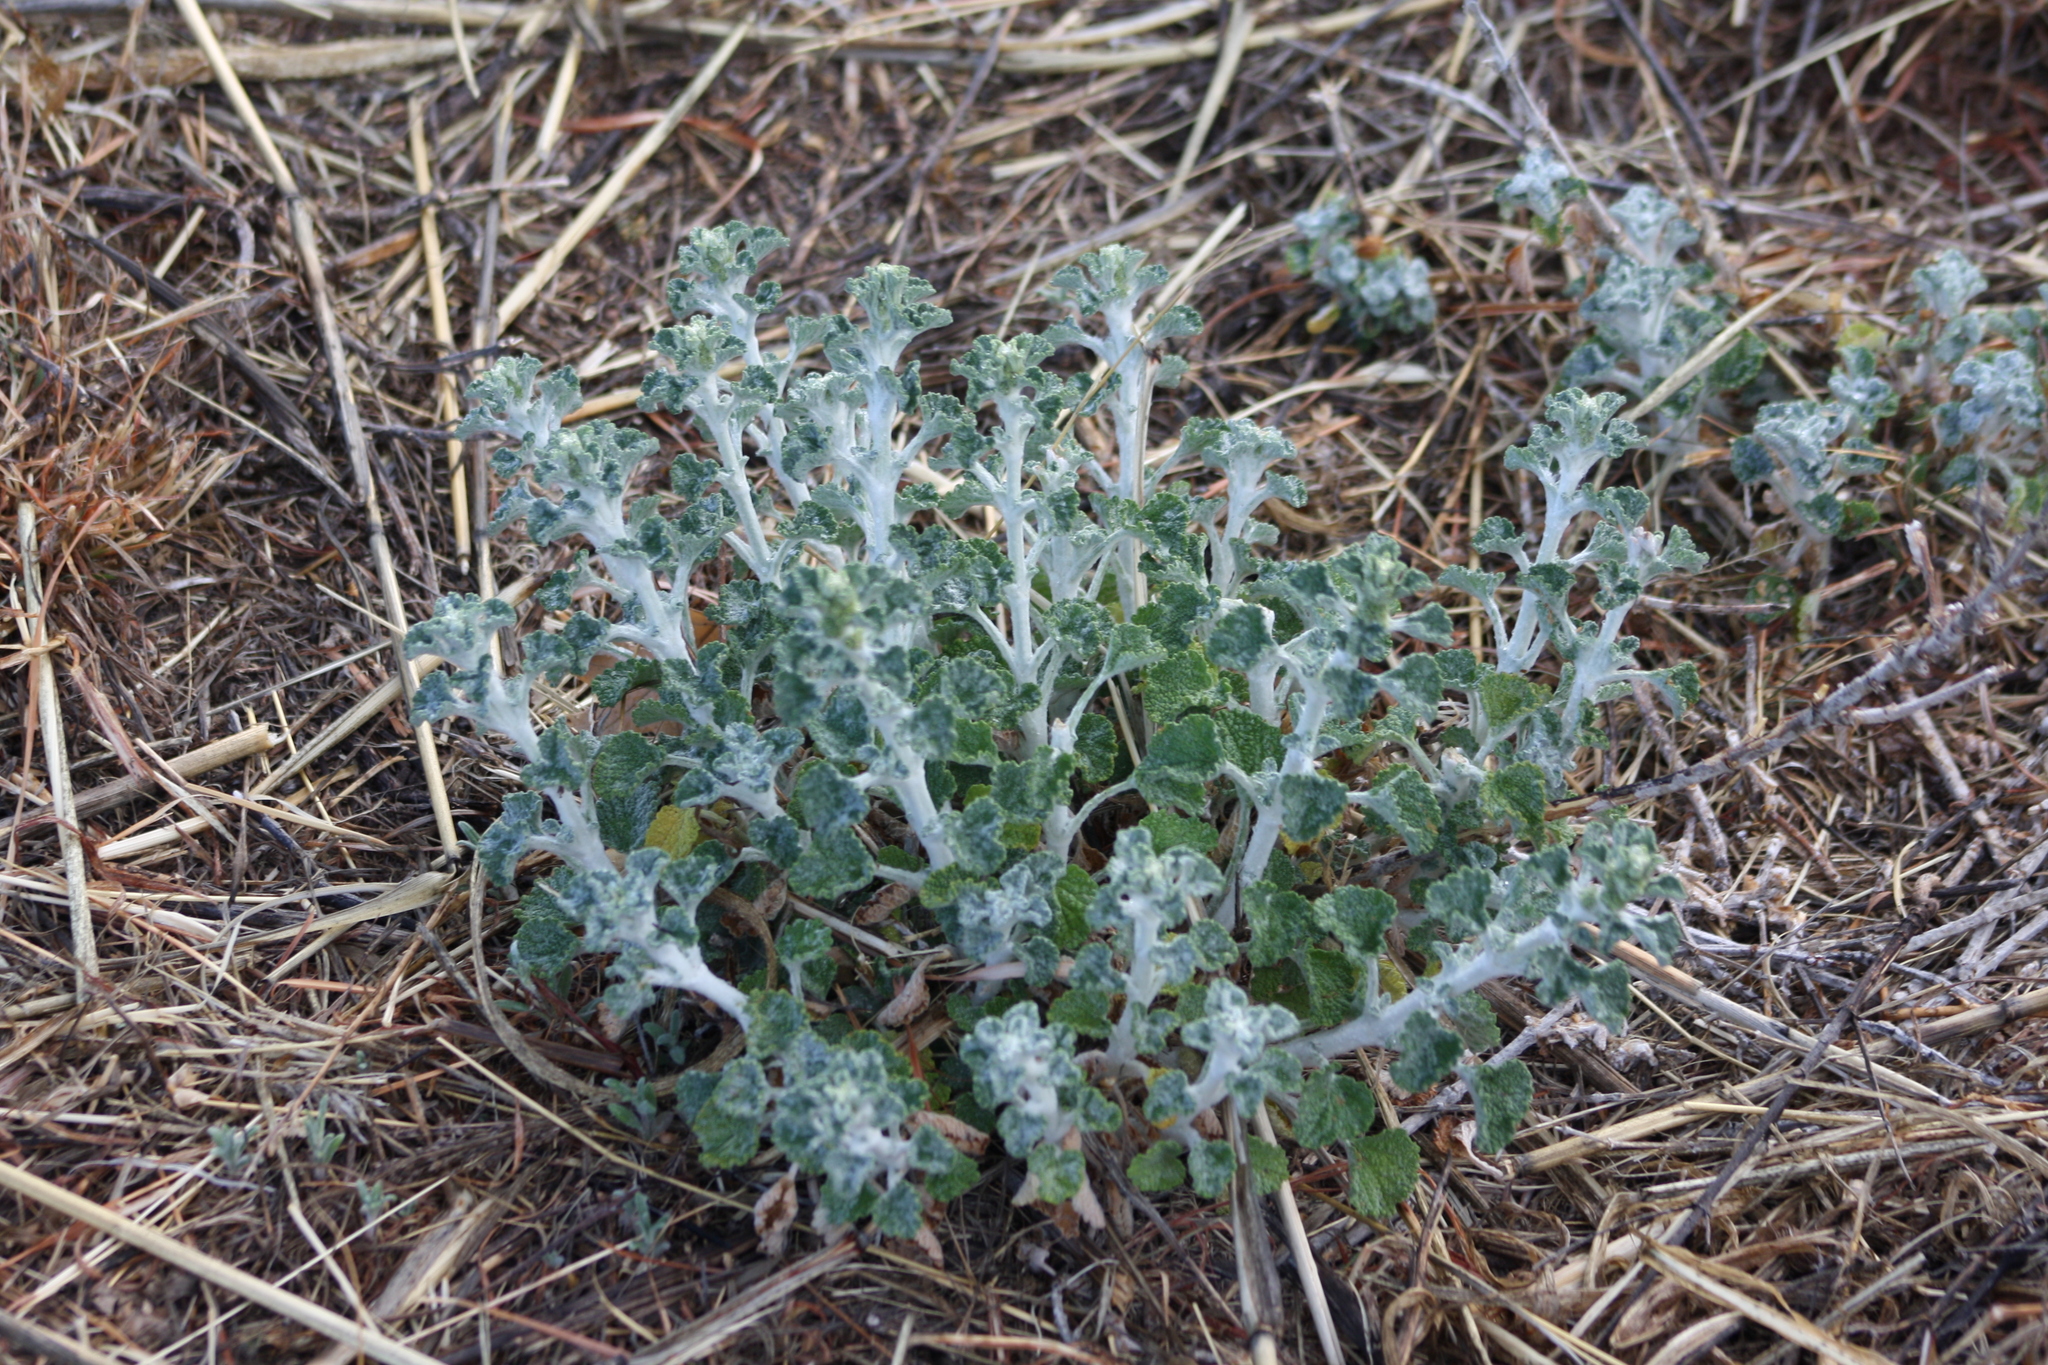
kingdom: Plantae
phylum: Tracheophyta
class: Magnoliopsida
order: Lamiales
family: Lamiaceae
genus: Marrubium
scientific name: Marrubium vulgare
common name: Horehound
